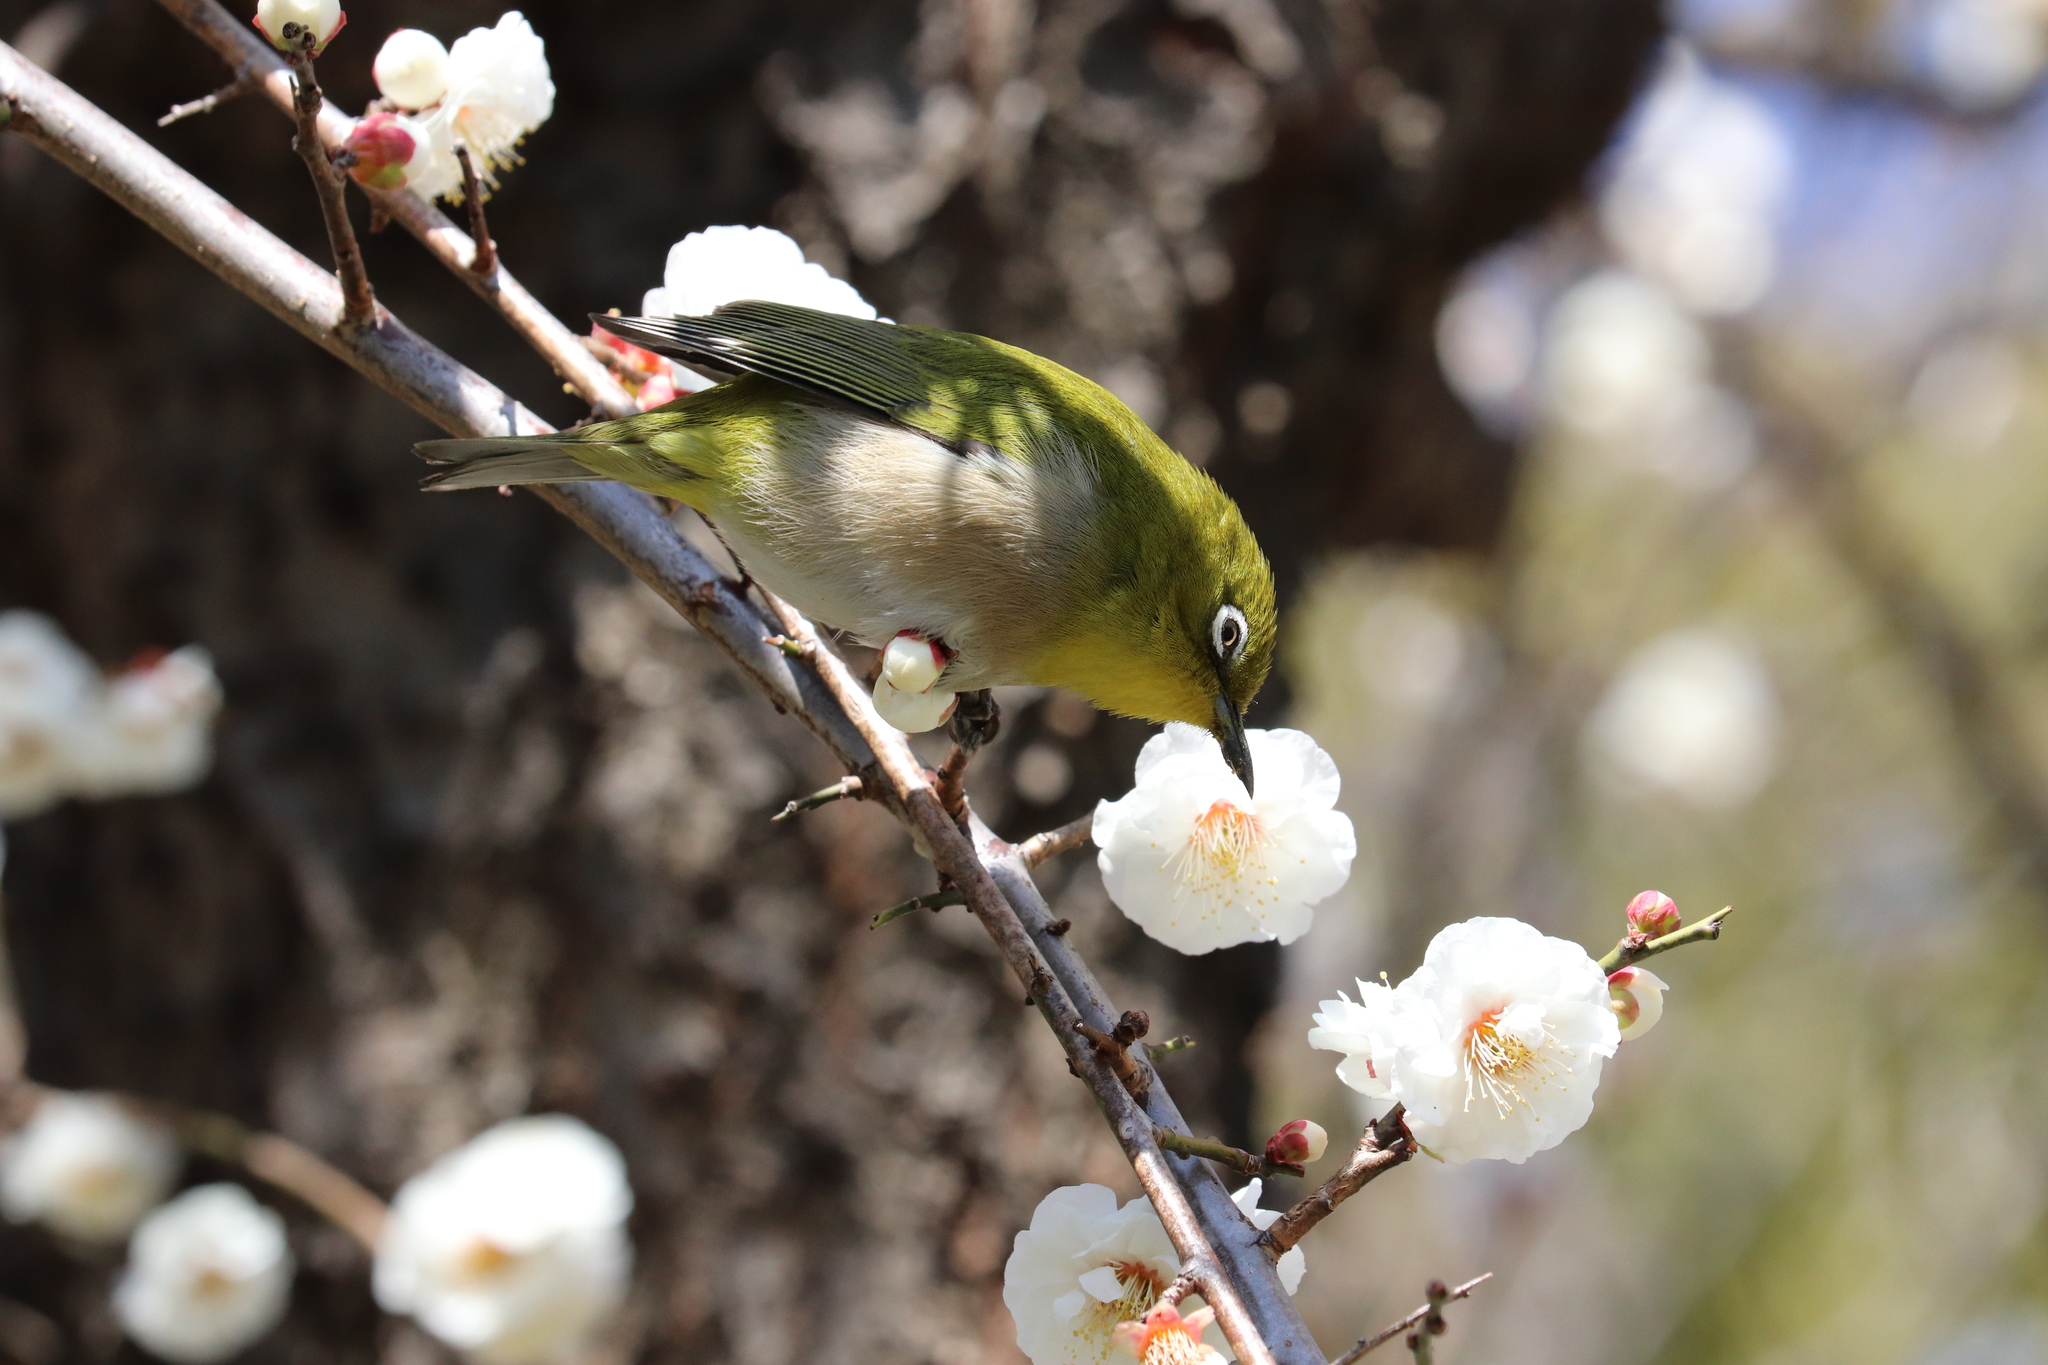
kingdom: Animalia
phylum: Chordata
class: Aves
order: Passeriformes
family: Zosteropidae
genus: Zosterops
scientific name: Zosterops japonicus
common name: Japanese white-eye
